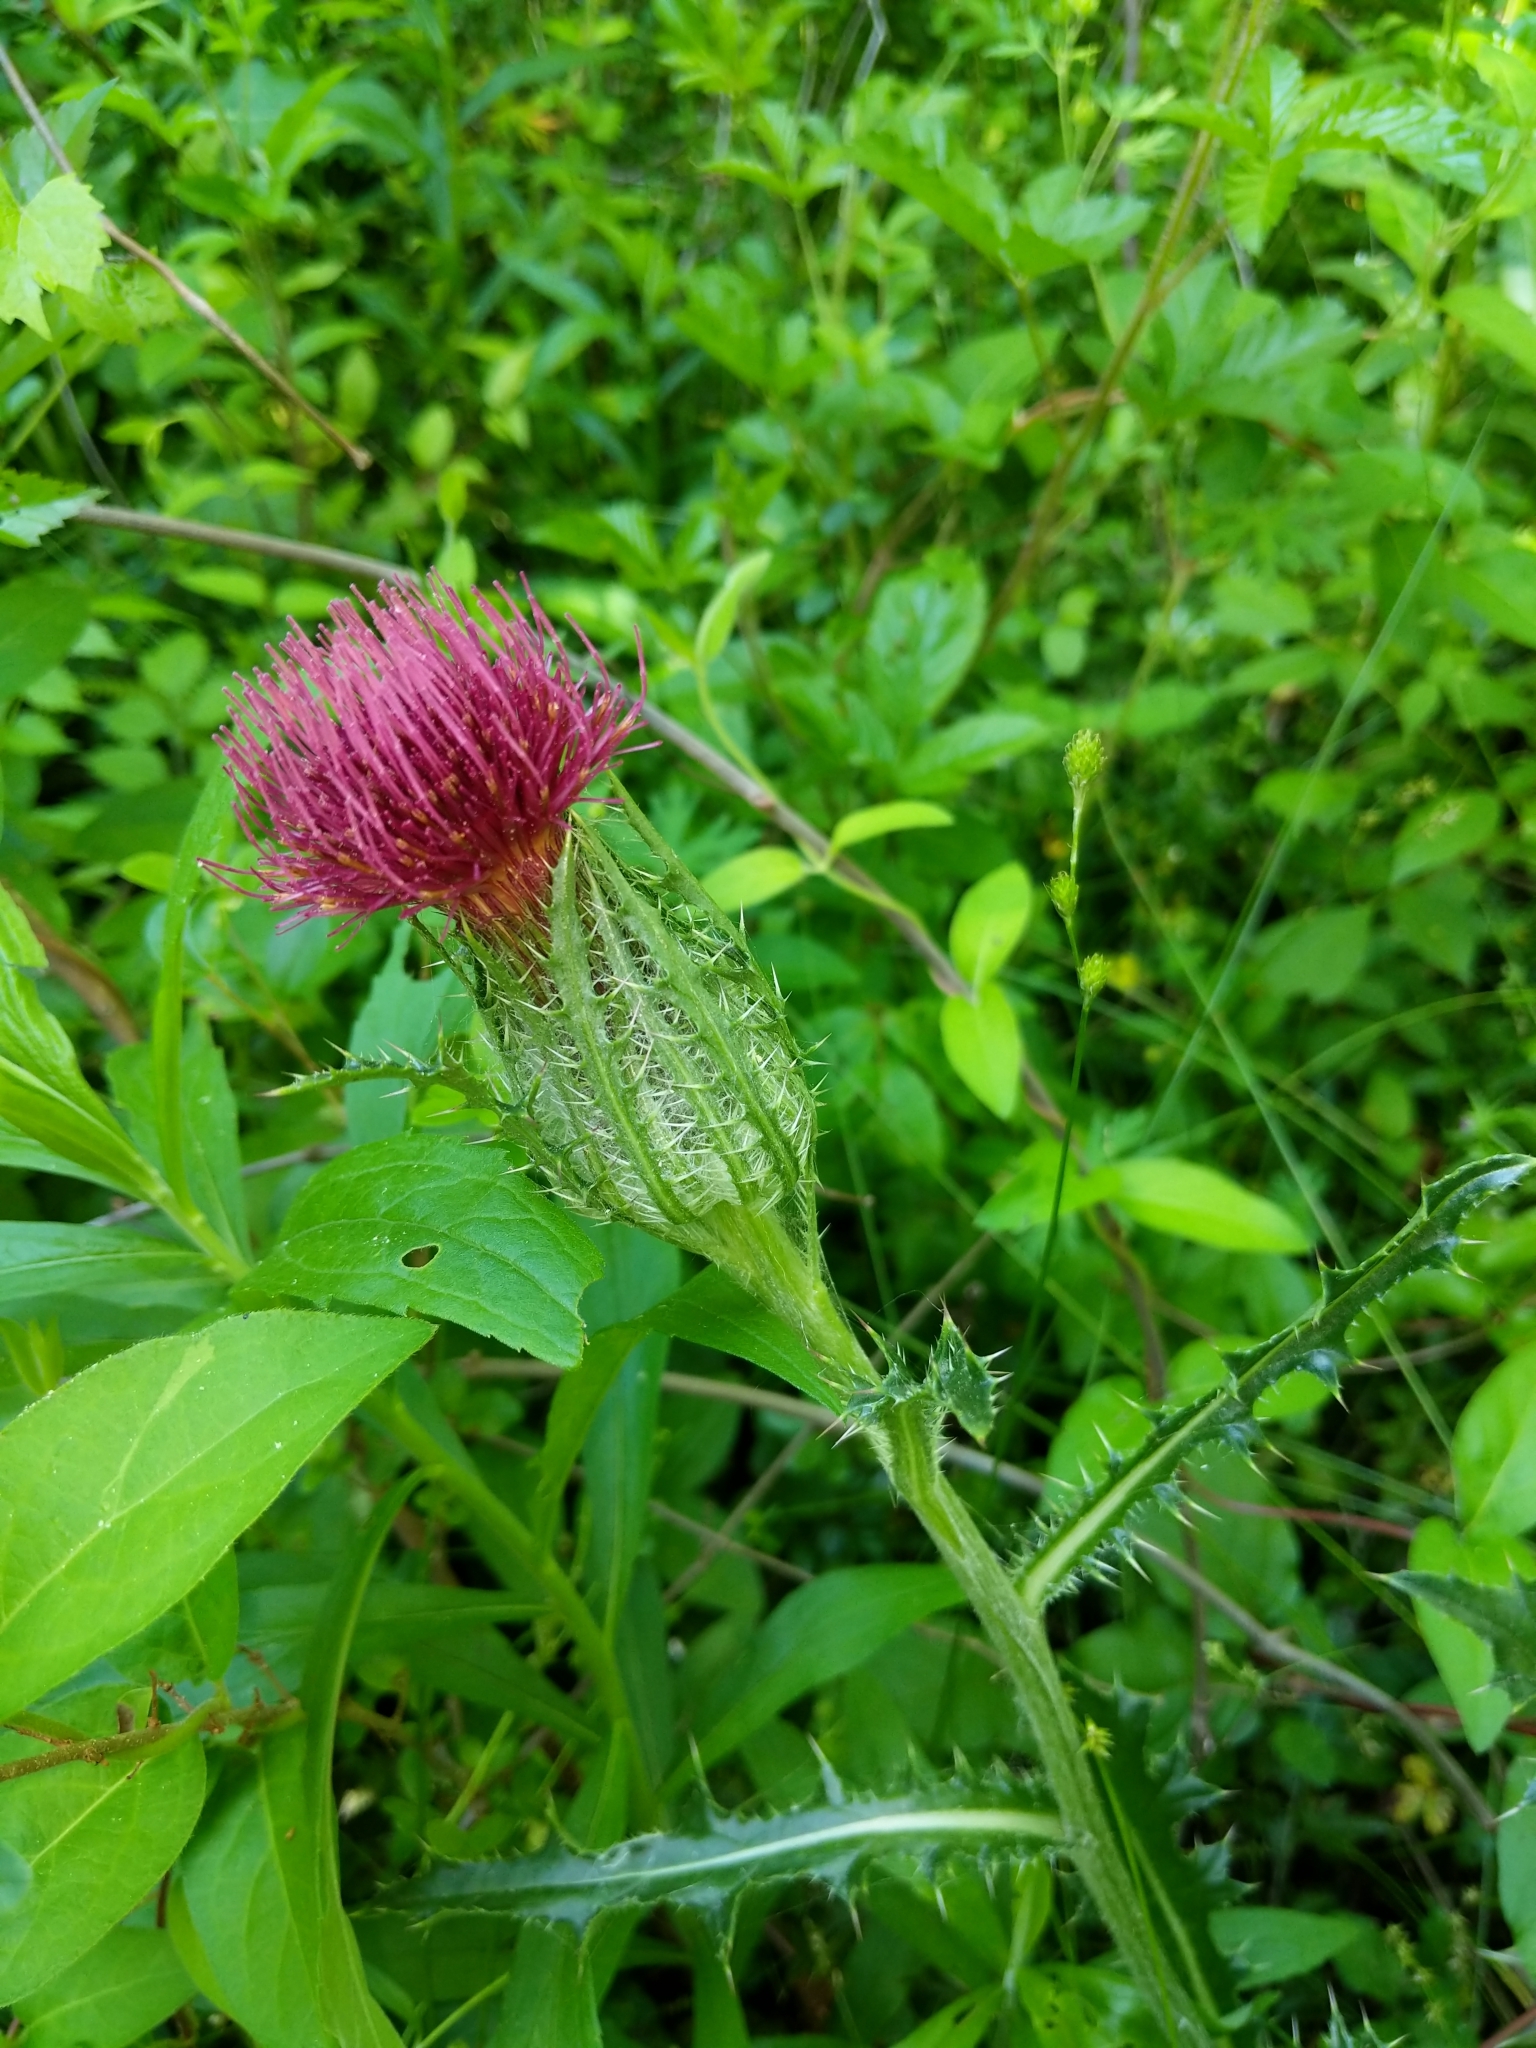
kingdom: Plantae
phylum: Tracheophyta
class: Magnoliopsida
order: Asterales
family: Asteraceae
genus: Cirsium
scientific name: Cirsium horridulum
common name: Bristly thistle
